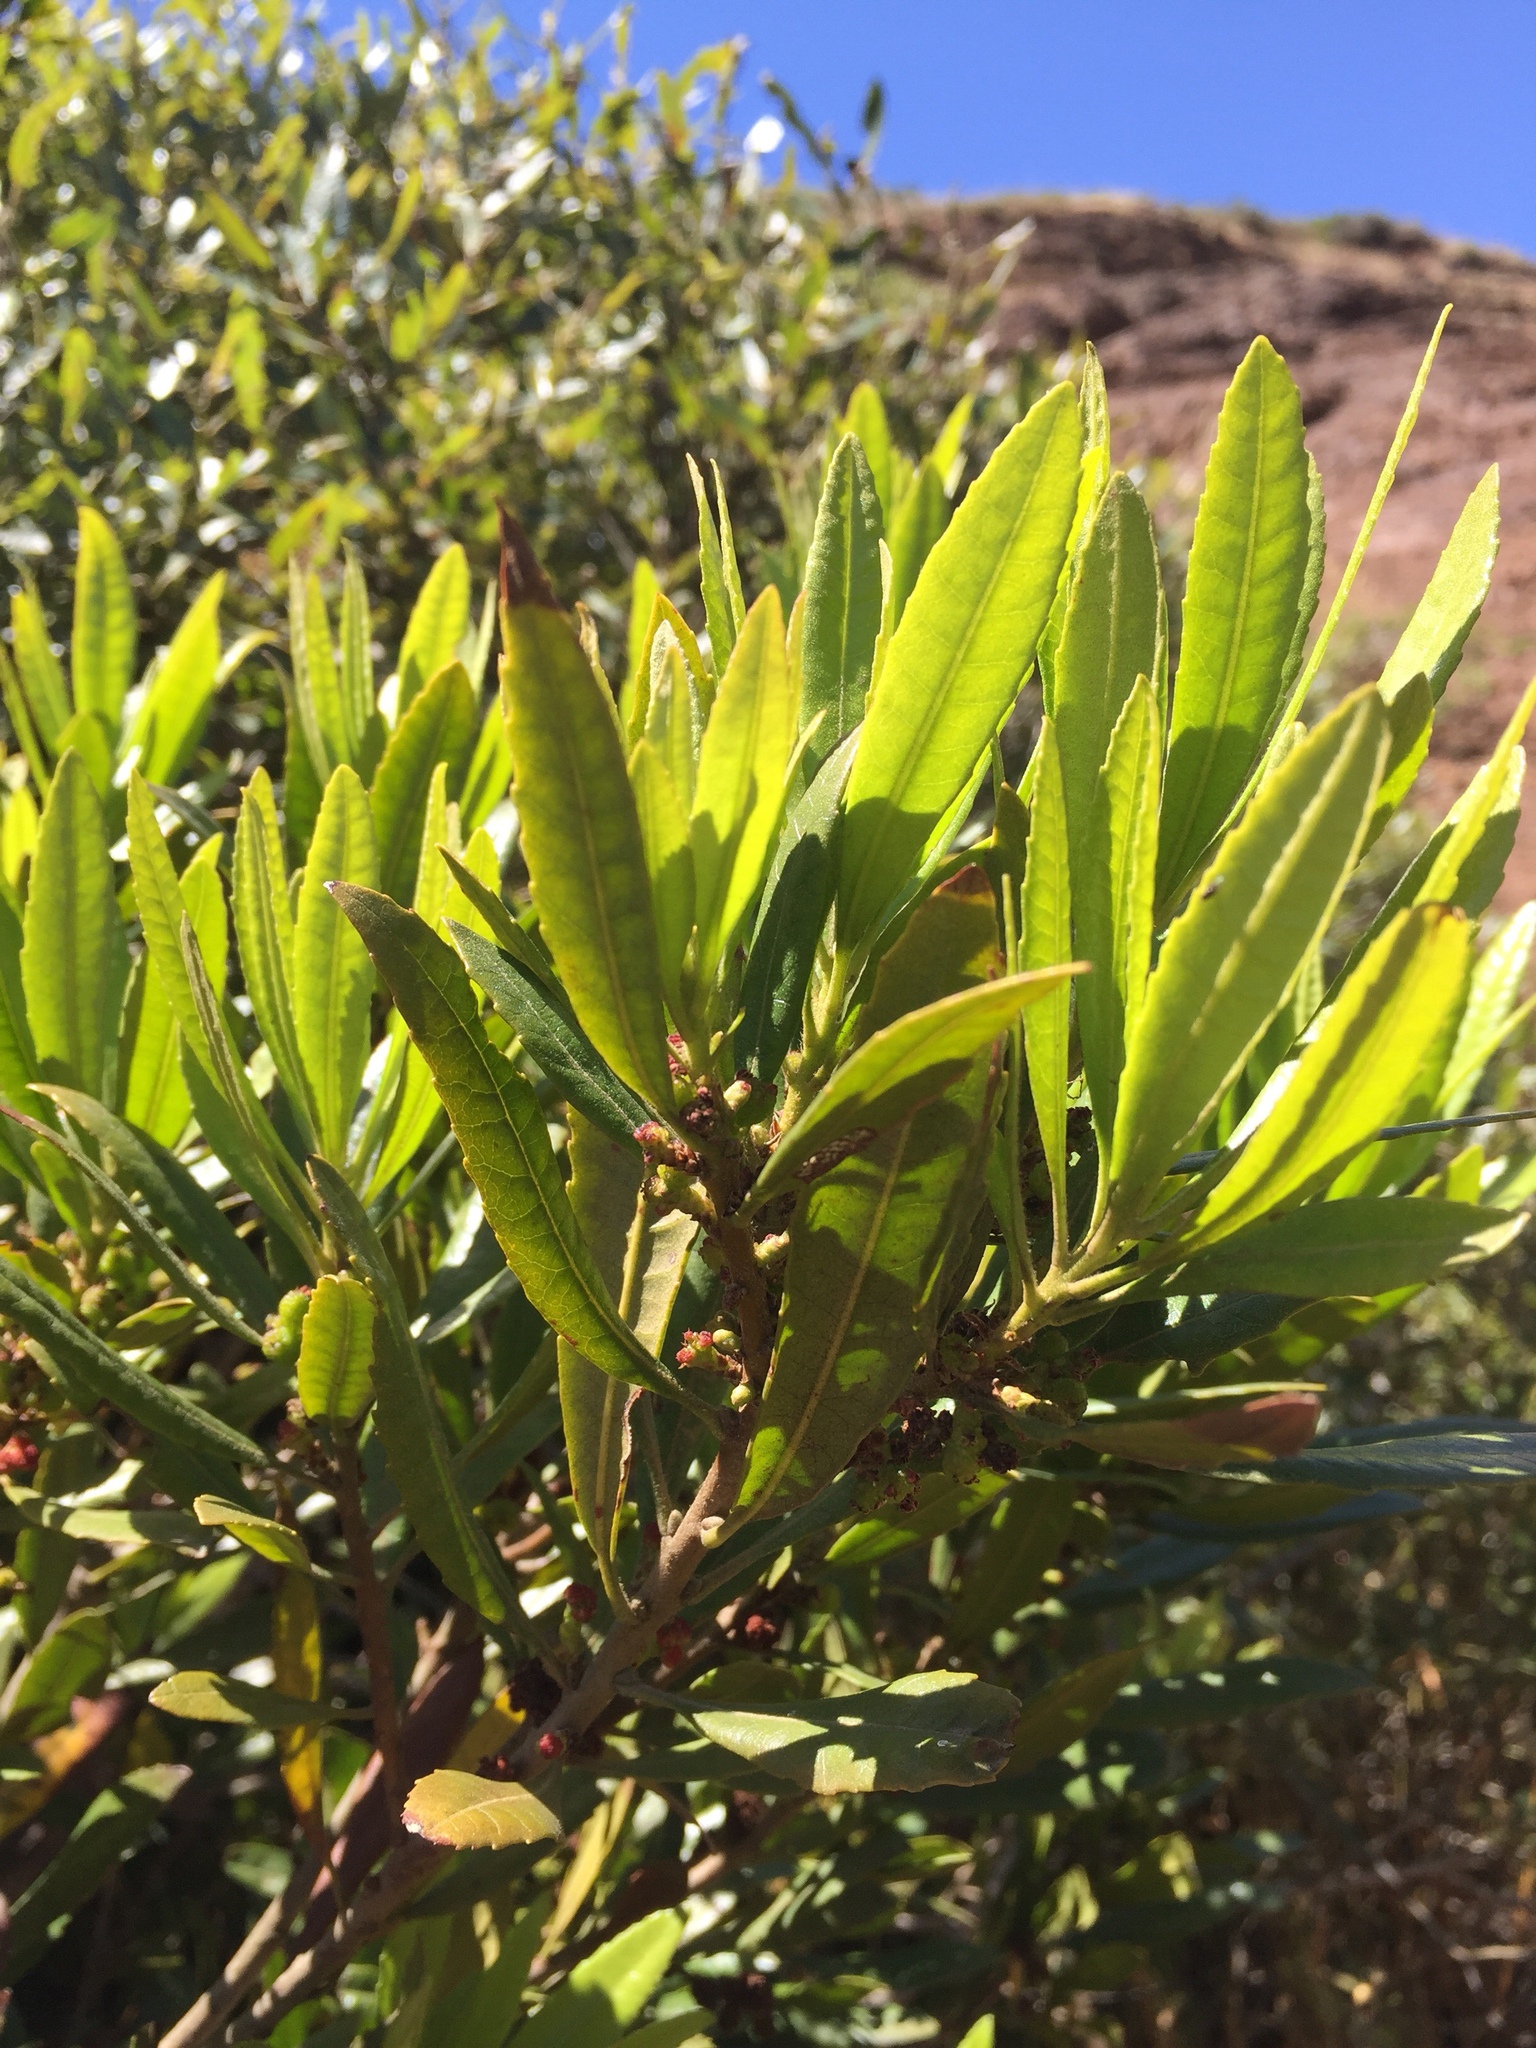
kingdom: Plantae
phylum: Tracheophyta
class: Magnoliopsida
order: Fagales
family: Myricaceae
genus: Morella
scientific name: Morella californica
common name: California wax-myrtle
